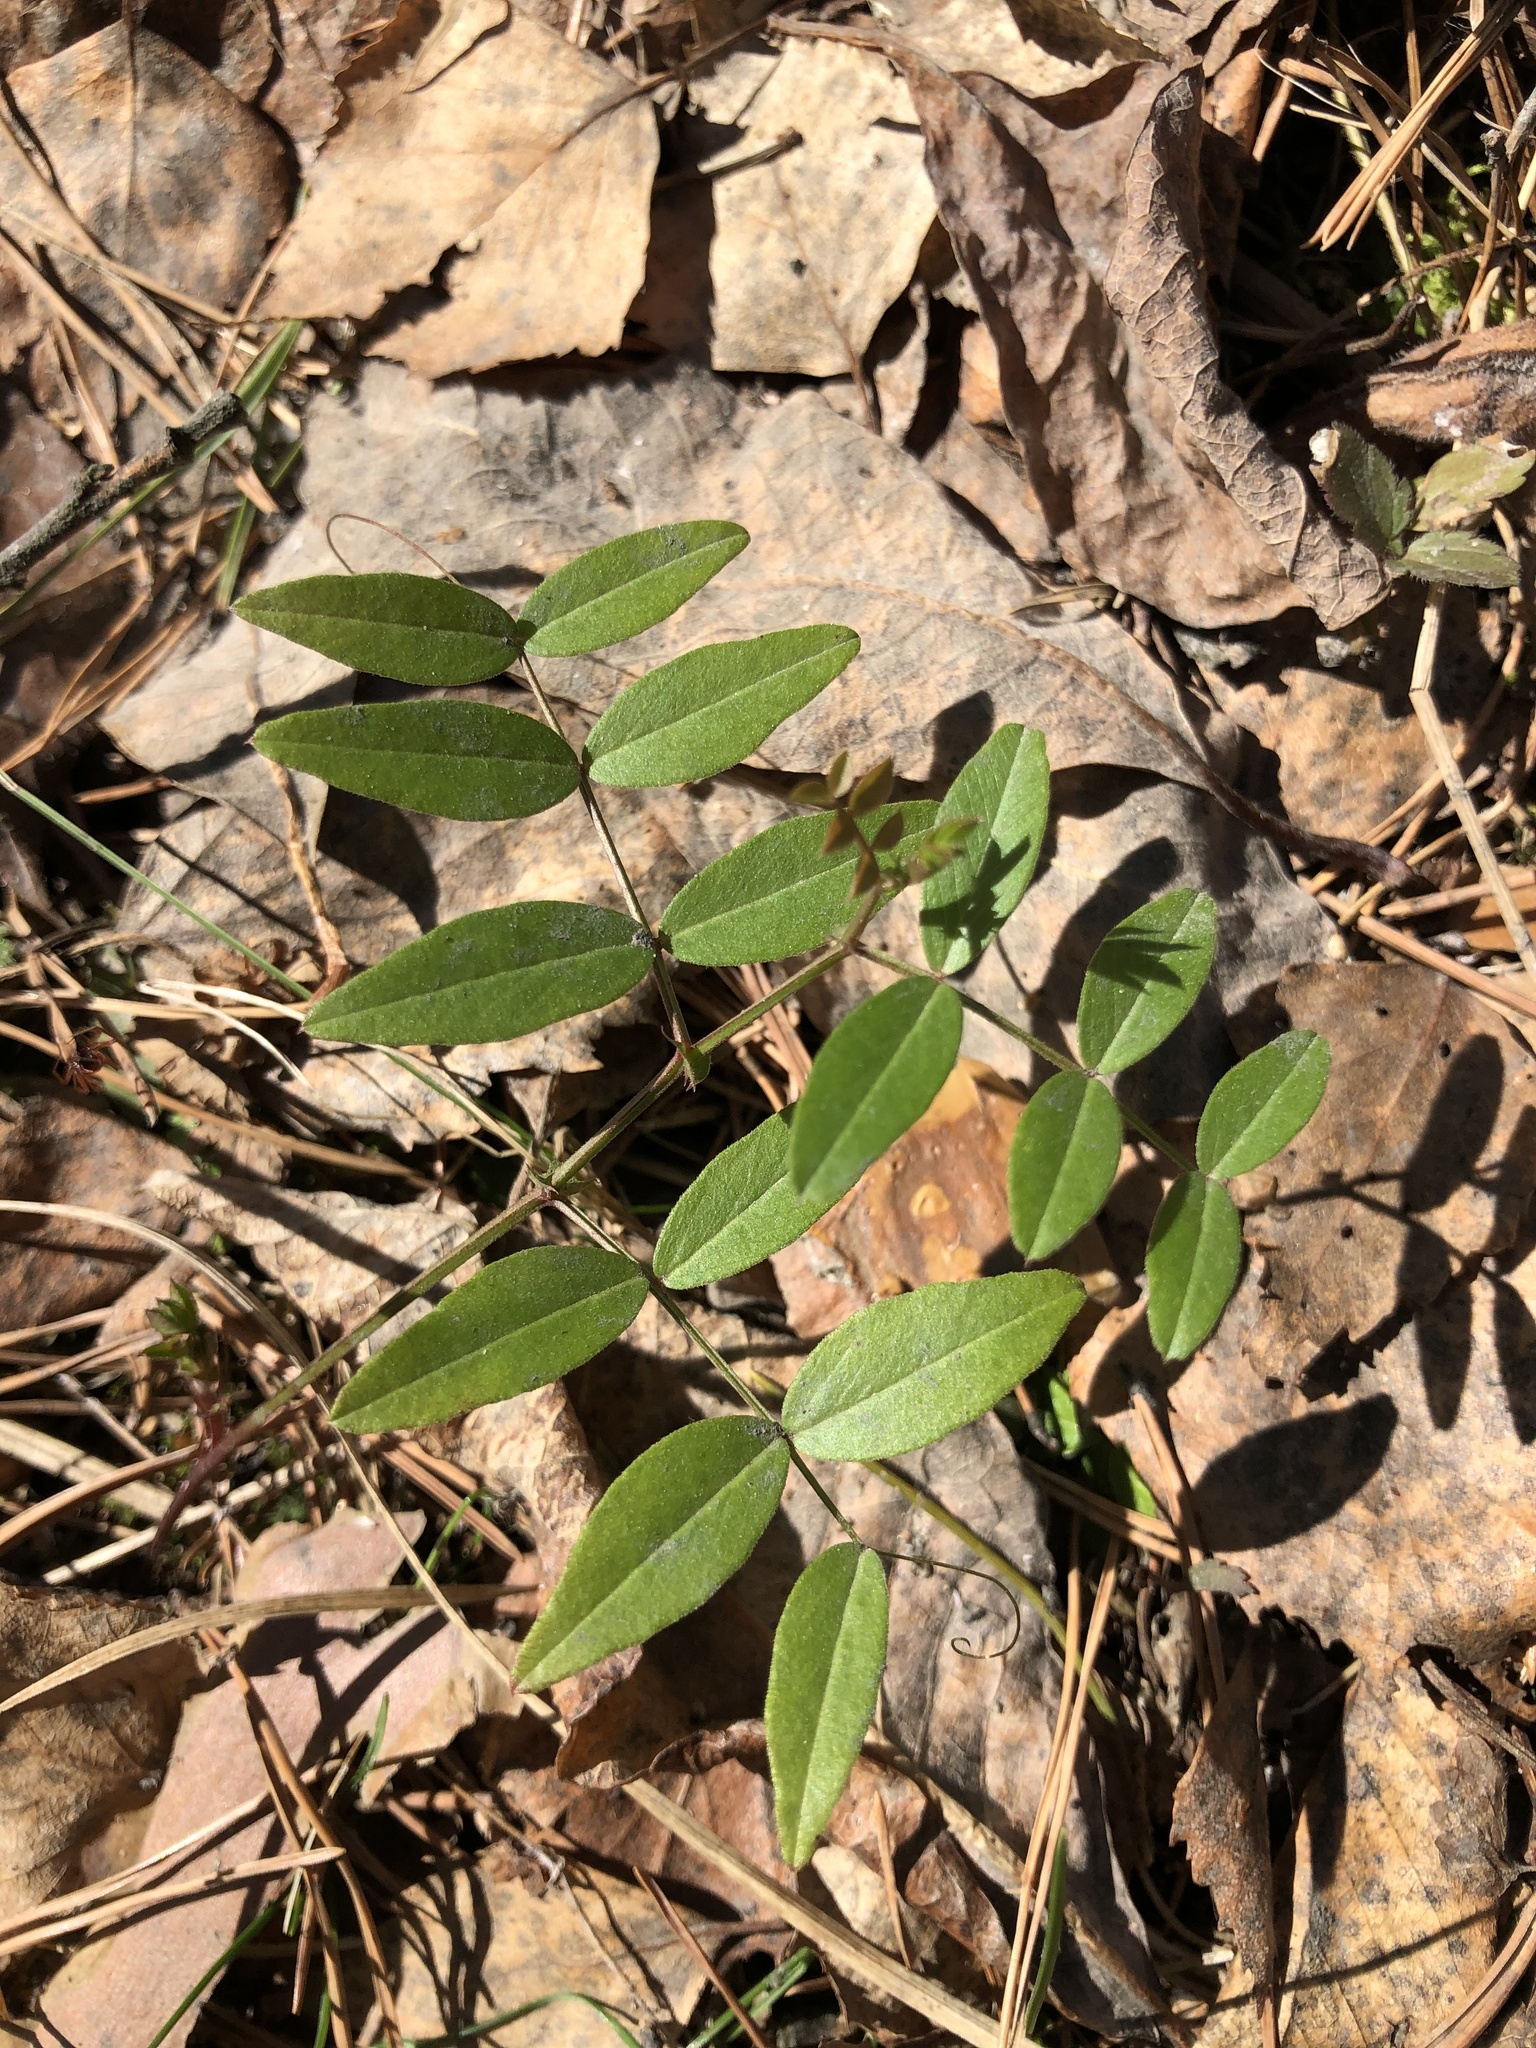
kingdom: Plantae
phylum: Tracheophyta
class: Magnoliopsida
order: Fabales
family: Fabaceae
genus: Vicia
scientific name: Vicia sepium
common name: Bush vetch
